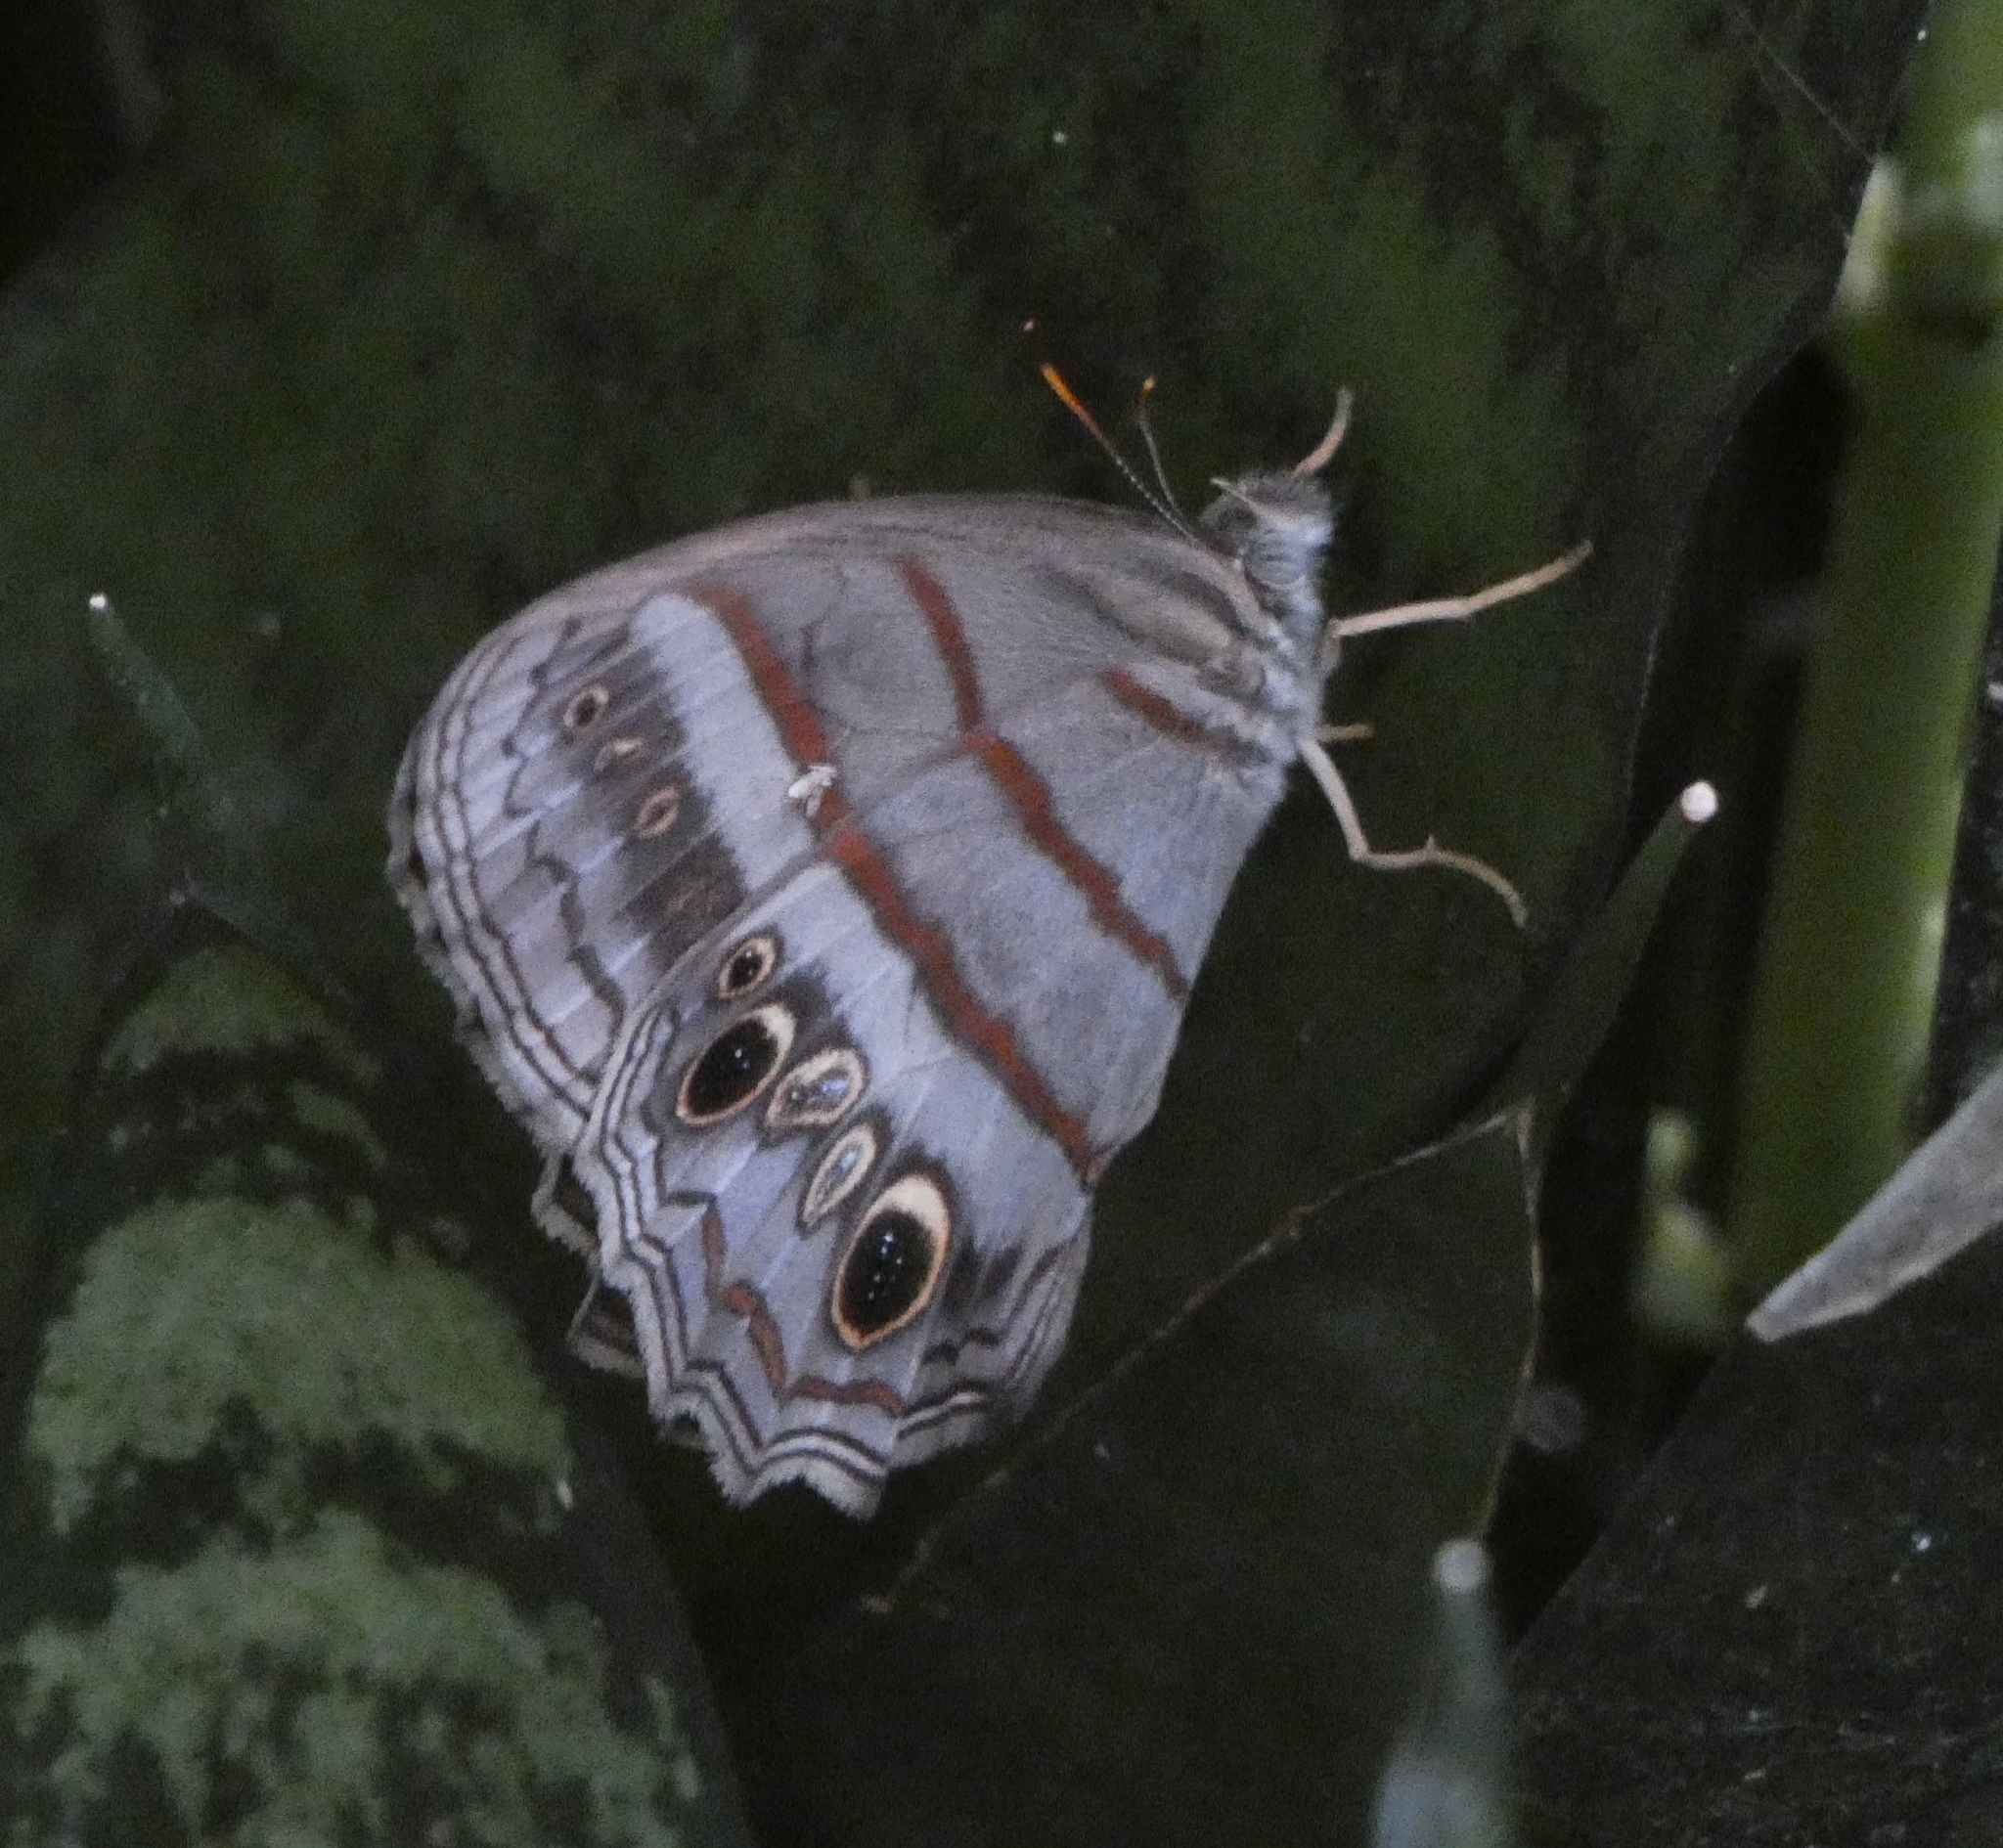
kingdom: Animalia
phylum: Arthropoda
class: Insecta
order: Lepidoptera
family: Nymphalidae
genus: Magneuptychia
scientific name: Magneuptychia libye
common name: Blue-gray satyr
